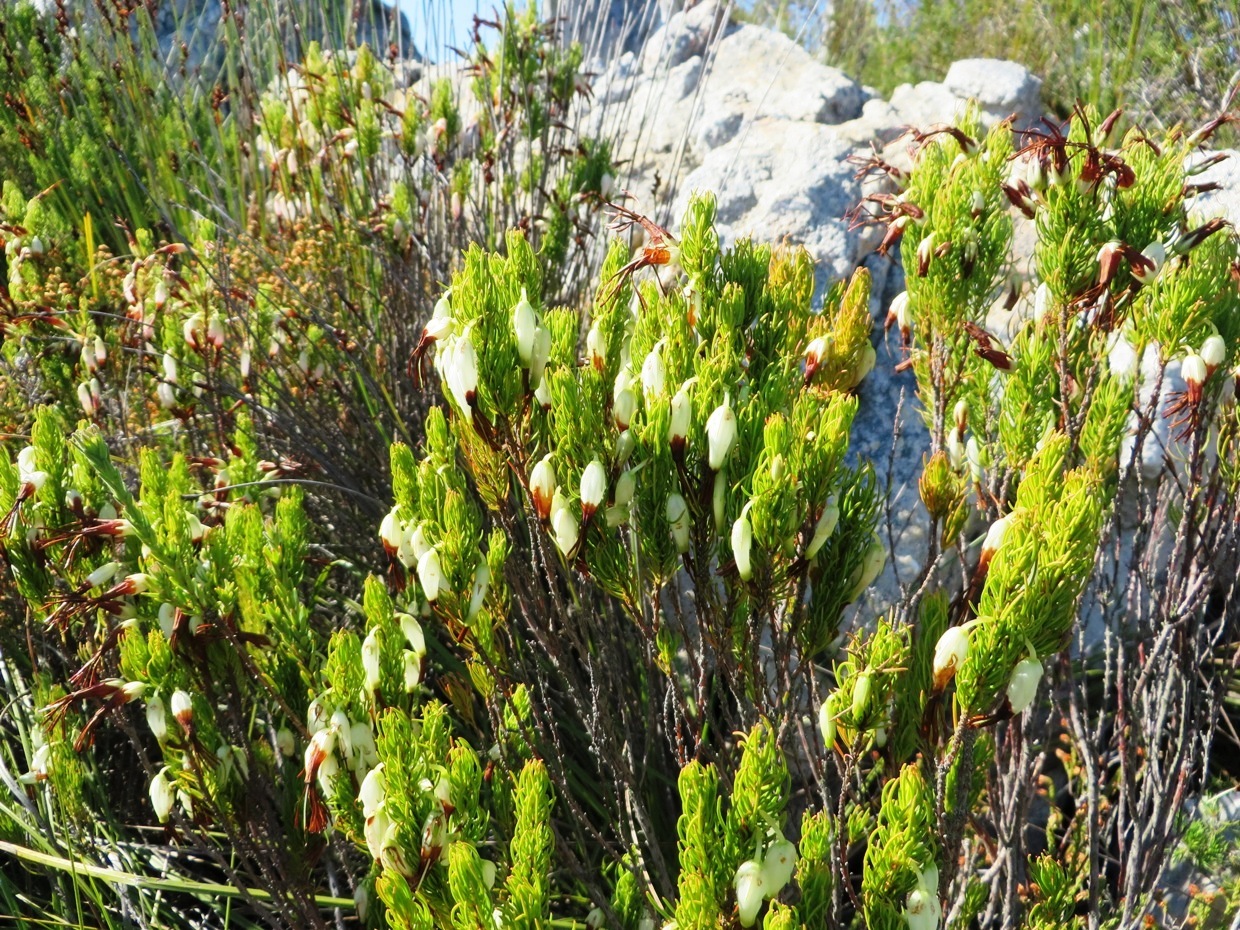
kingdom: Plantae
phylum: Tracheophyta
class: Magnoliopsida
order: Ericales
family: Ericaceae
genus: Erica
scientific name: Erica plukenetii
